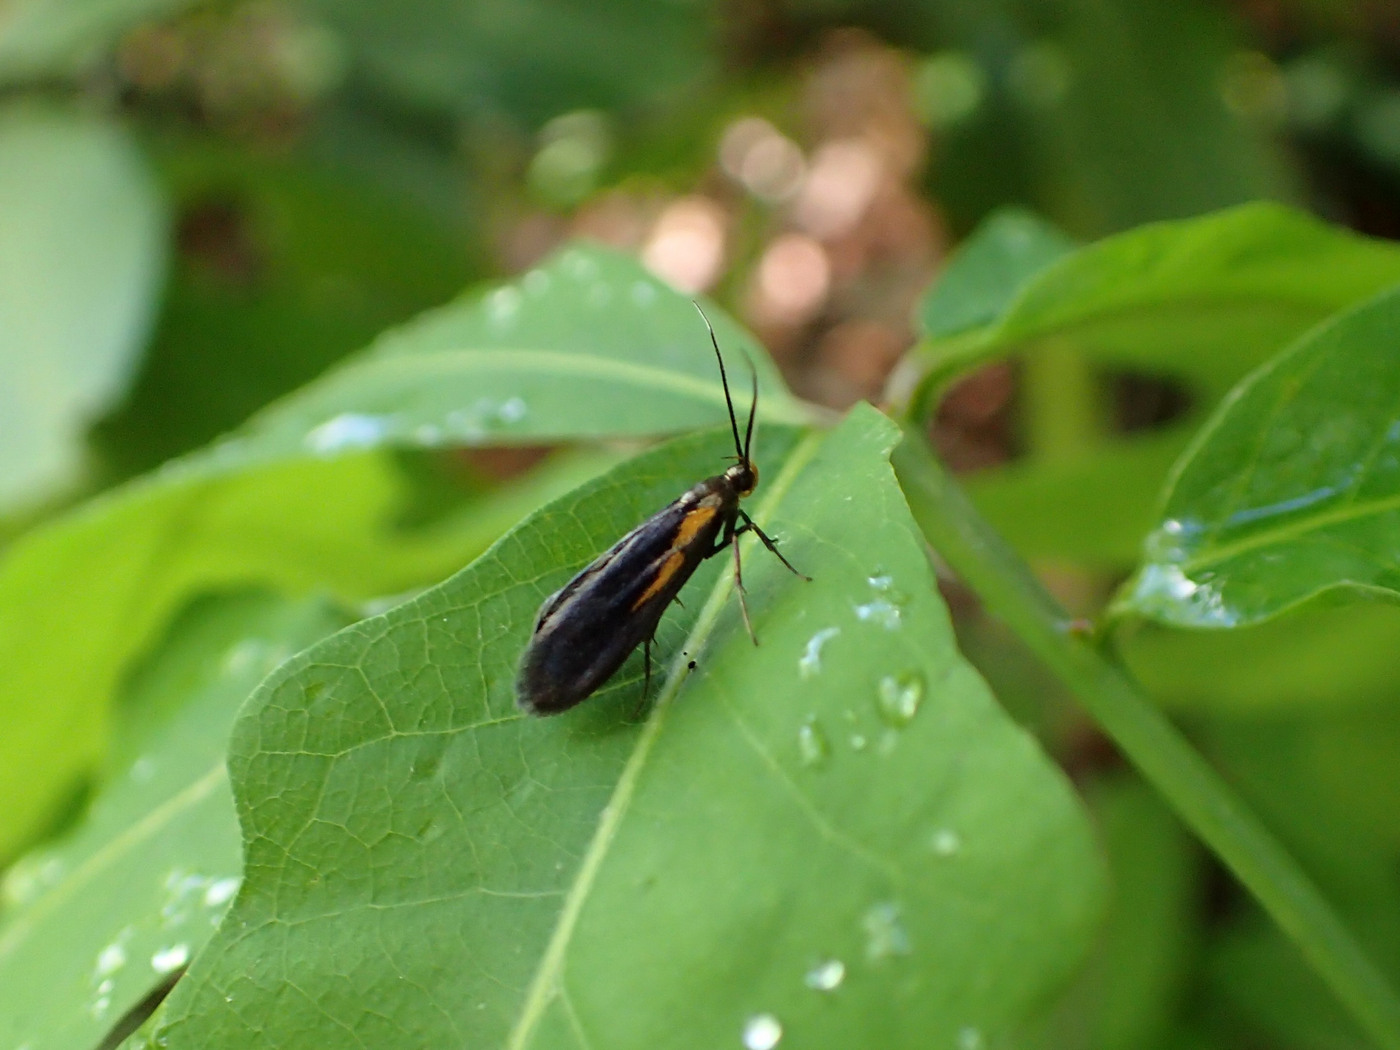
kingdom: Animalia
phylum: Arthropoda
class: Insecta
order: Lepidoptera
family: Oecophoridae
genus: Mathildana
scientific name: Mathildana newmanella
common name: Newman's mathildana moth
